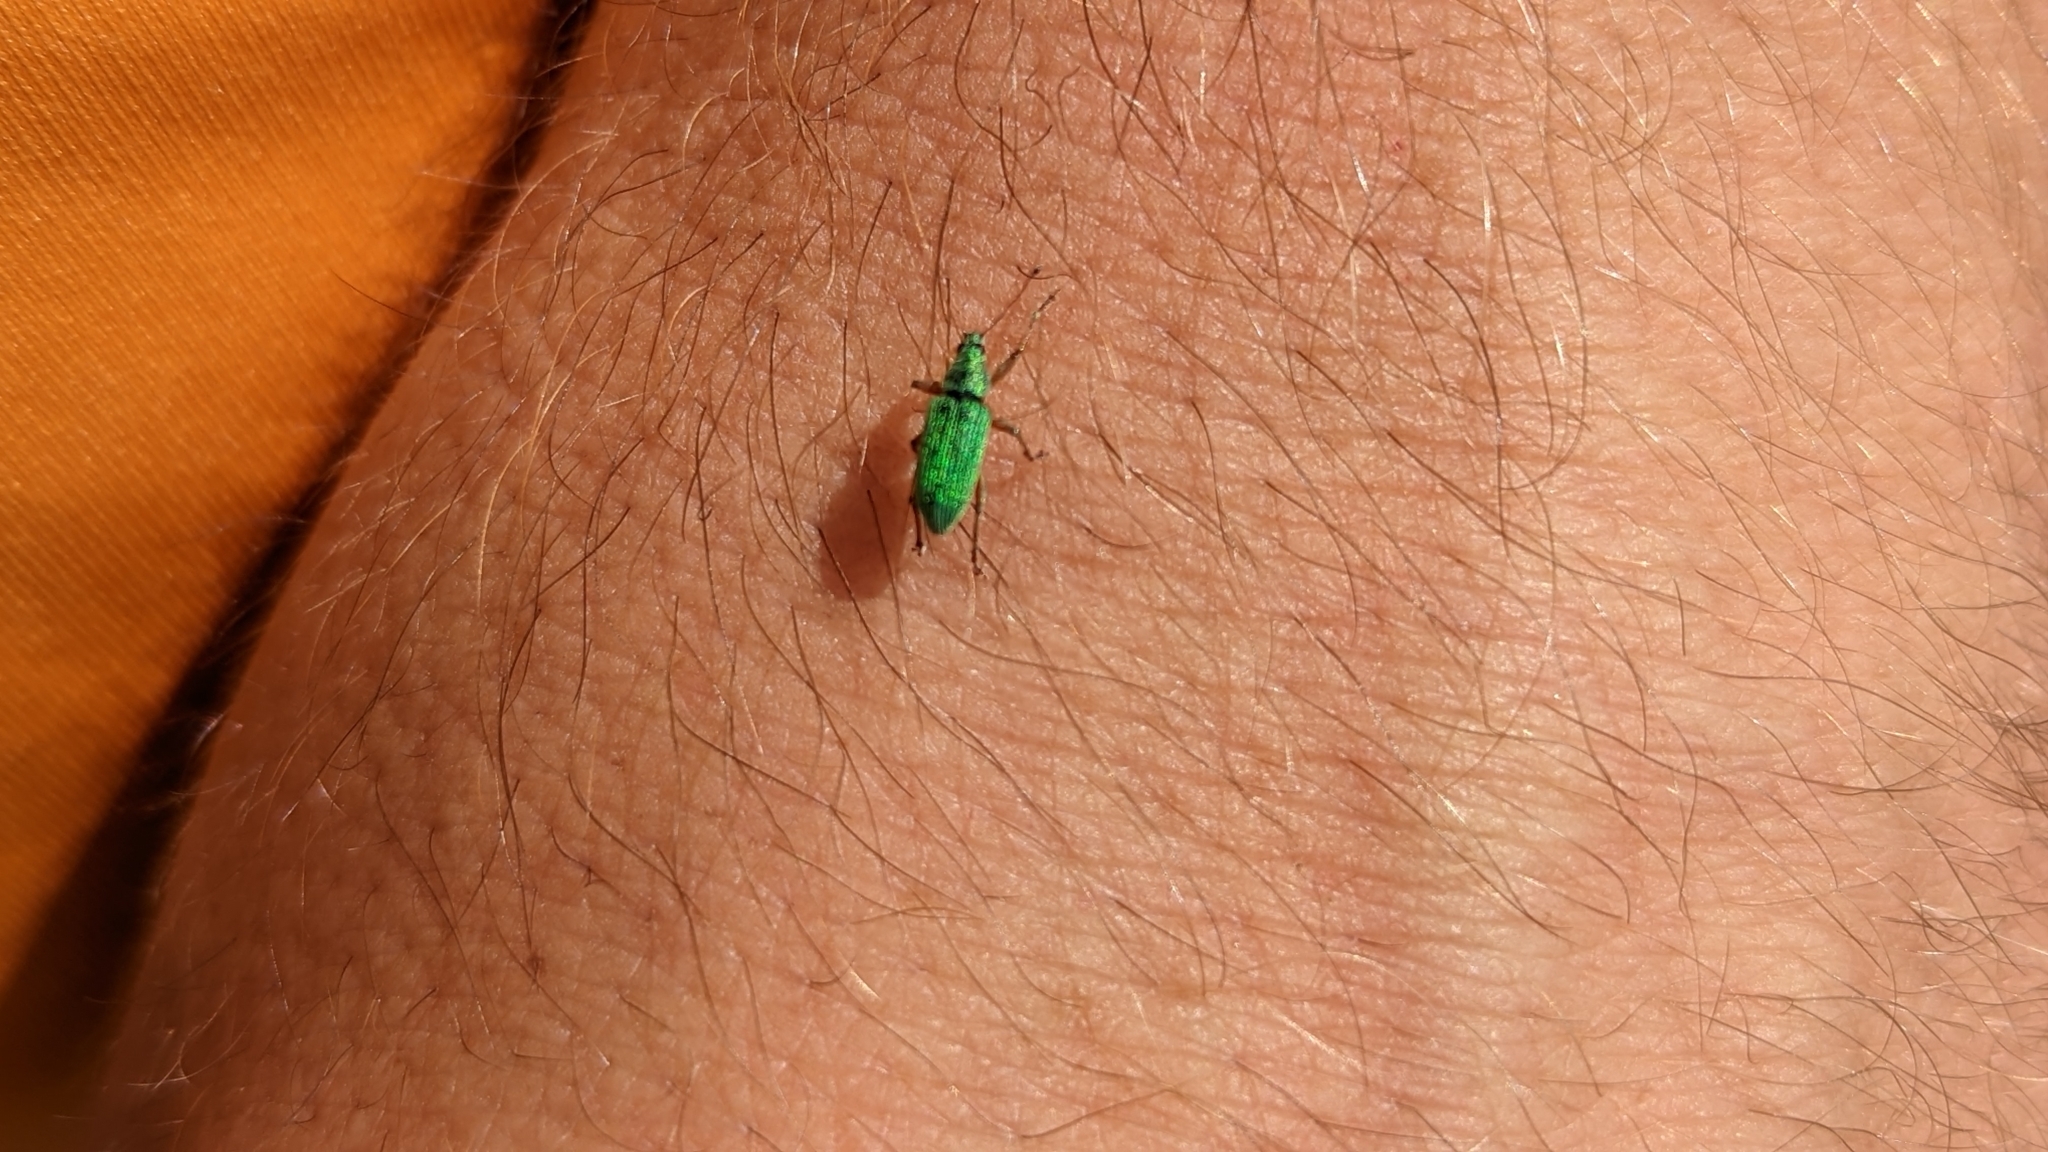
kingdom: Animalia
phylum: Arthropoda
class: Insecta
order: Coleoptera
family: Curculionidae
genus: Polydrusus
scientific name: Polydrusus formosus
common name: Weevil
